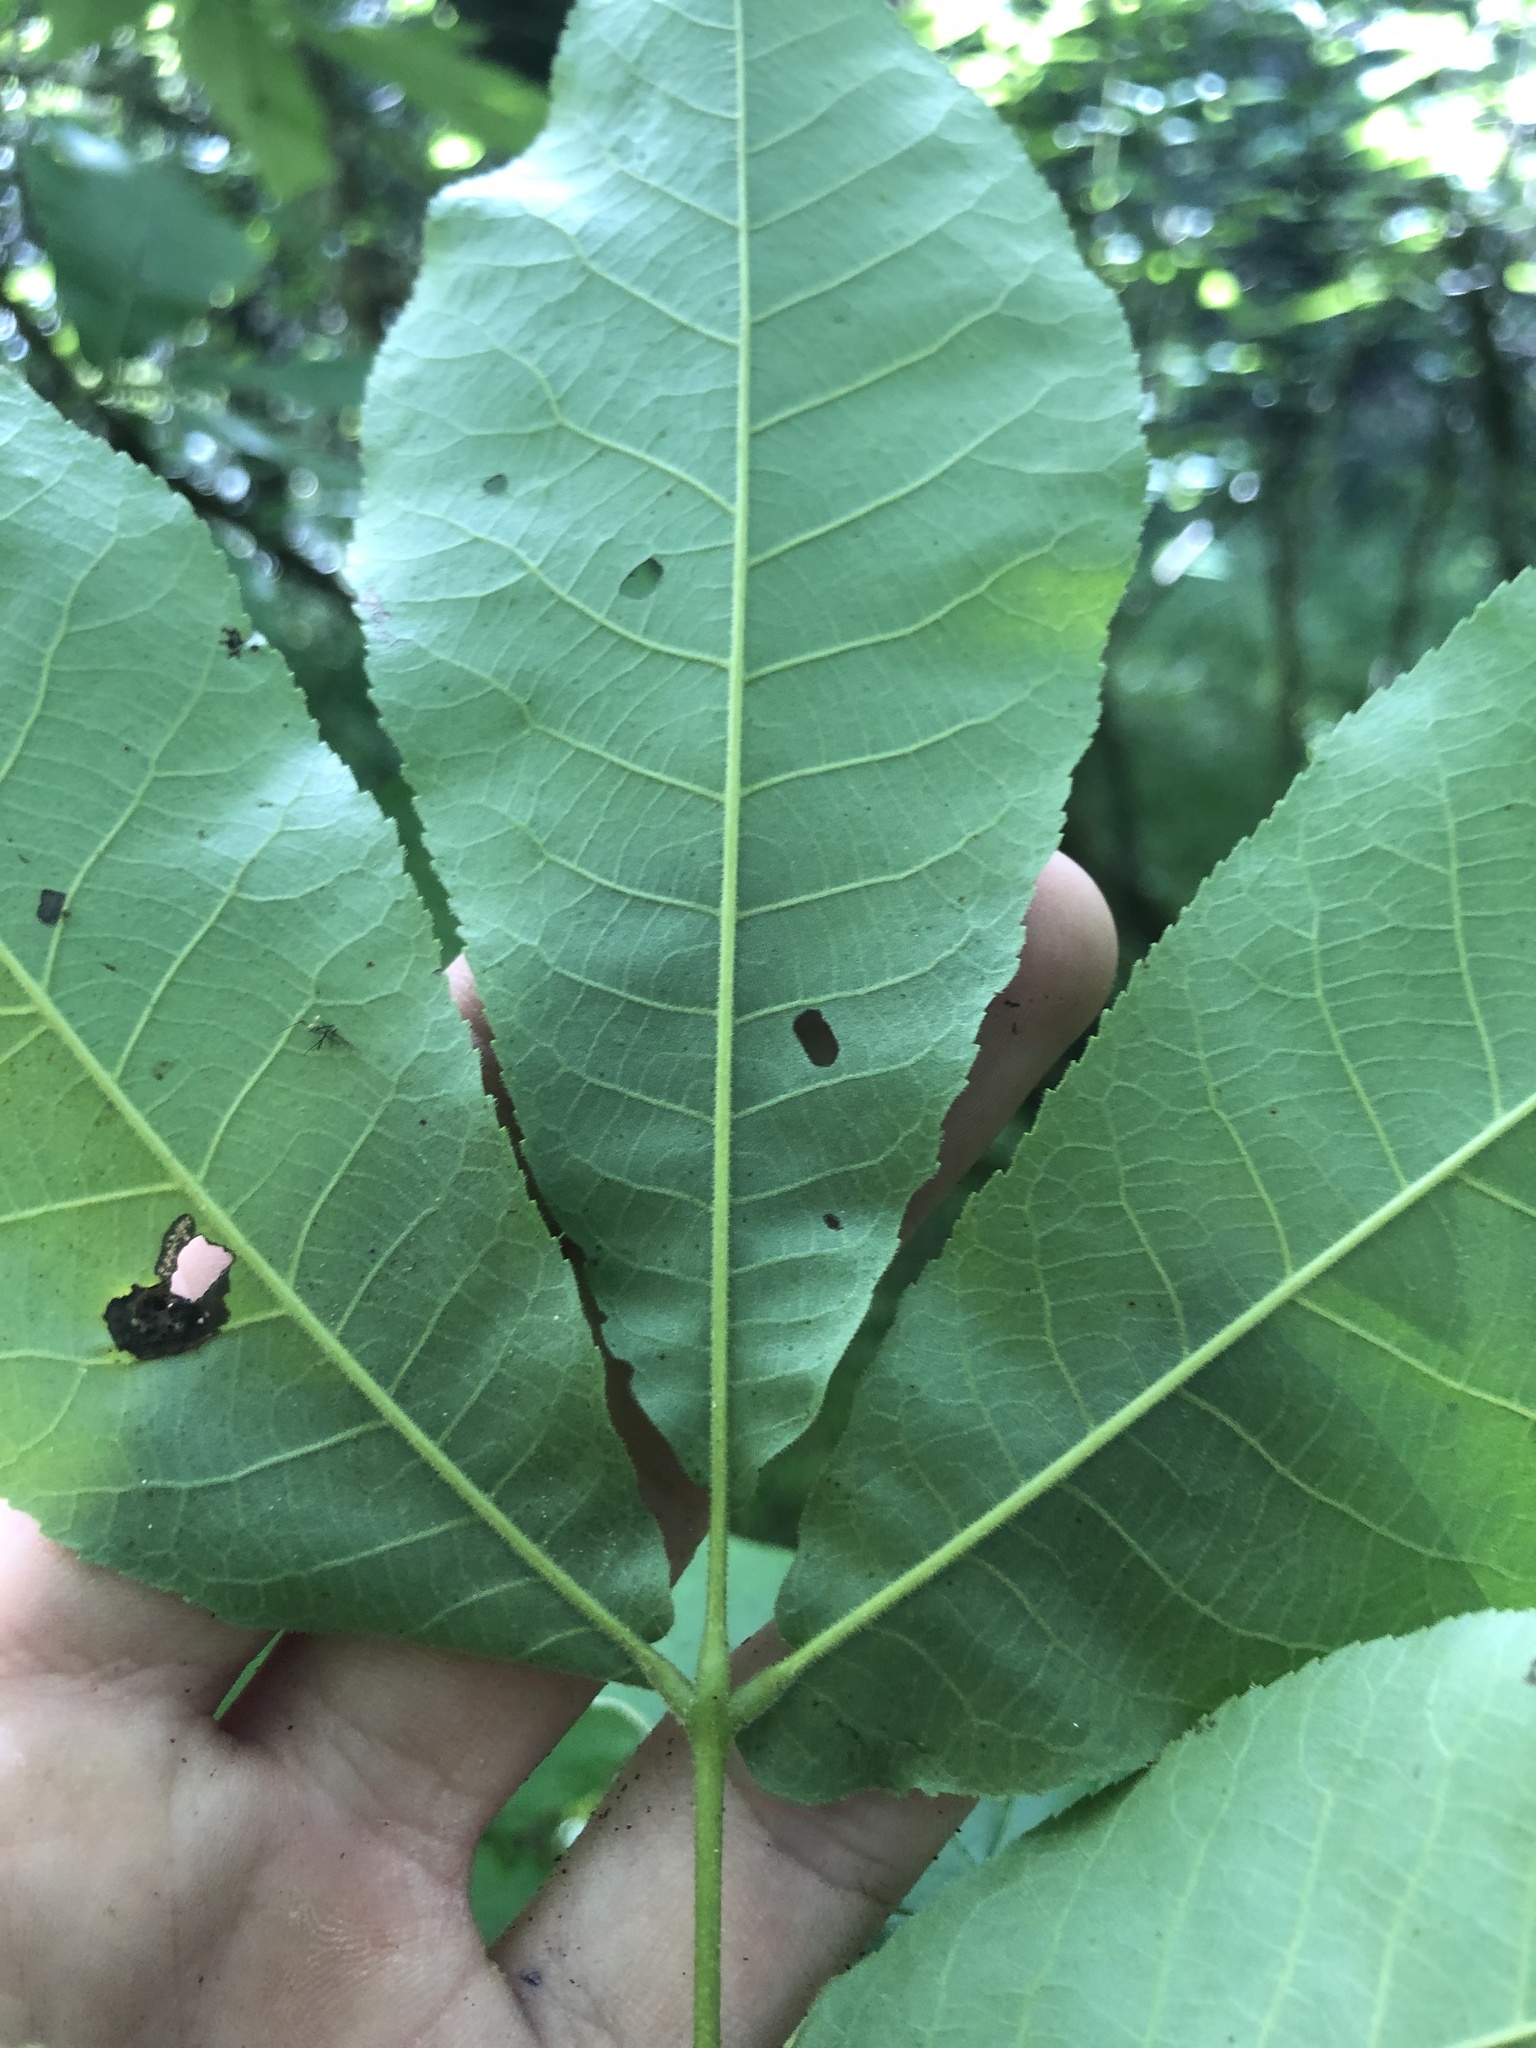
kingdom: Plantae
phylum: Tracheophyta
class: Magnoliopsida
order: Fagales
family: Juglandaceae
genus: Carya
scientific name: Carya myristiciformis
